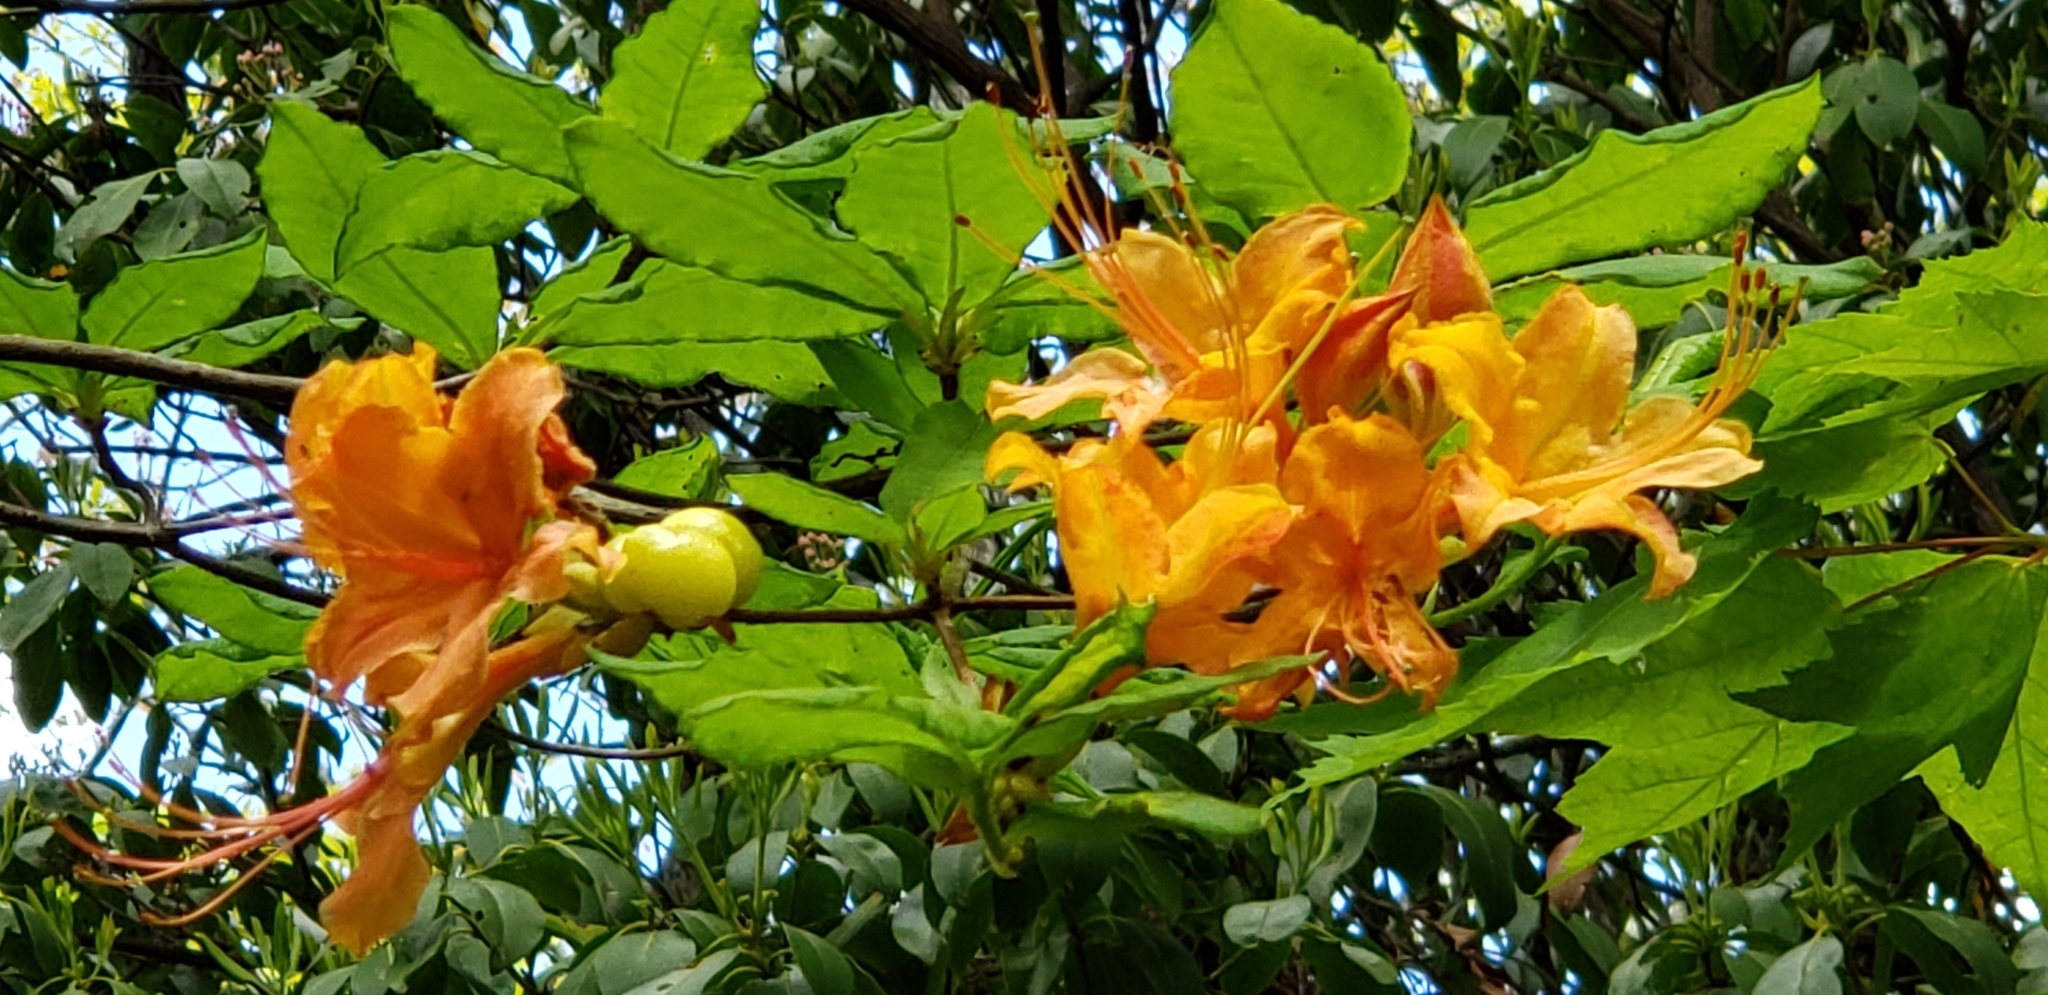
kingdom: Plantae
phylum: Tracheophyta
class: Magnoliopsida
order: Ericales
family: Ericaceae
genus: Rhododendron
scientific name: Rhododendron calendulaceum
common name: Flame azalea
